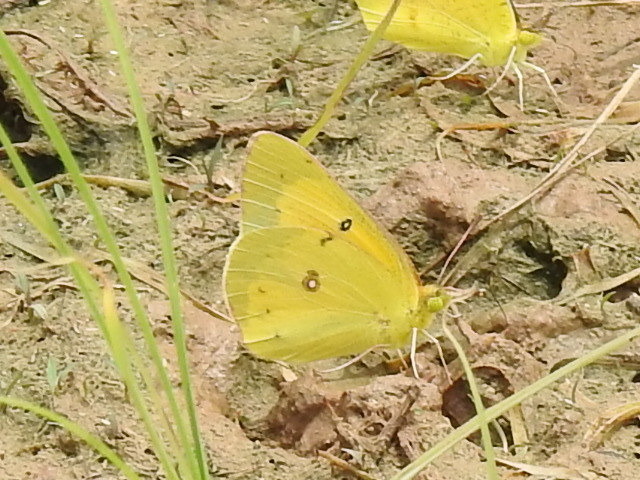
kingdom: Animalia
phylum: Arthropoda
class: Insecta
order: Lepidoptera
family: Pieridae
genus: Colias
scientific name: Colias eurytheme
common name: Alfalfa butterfly
